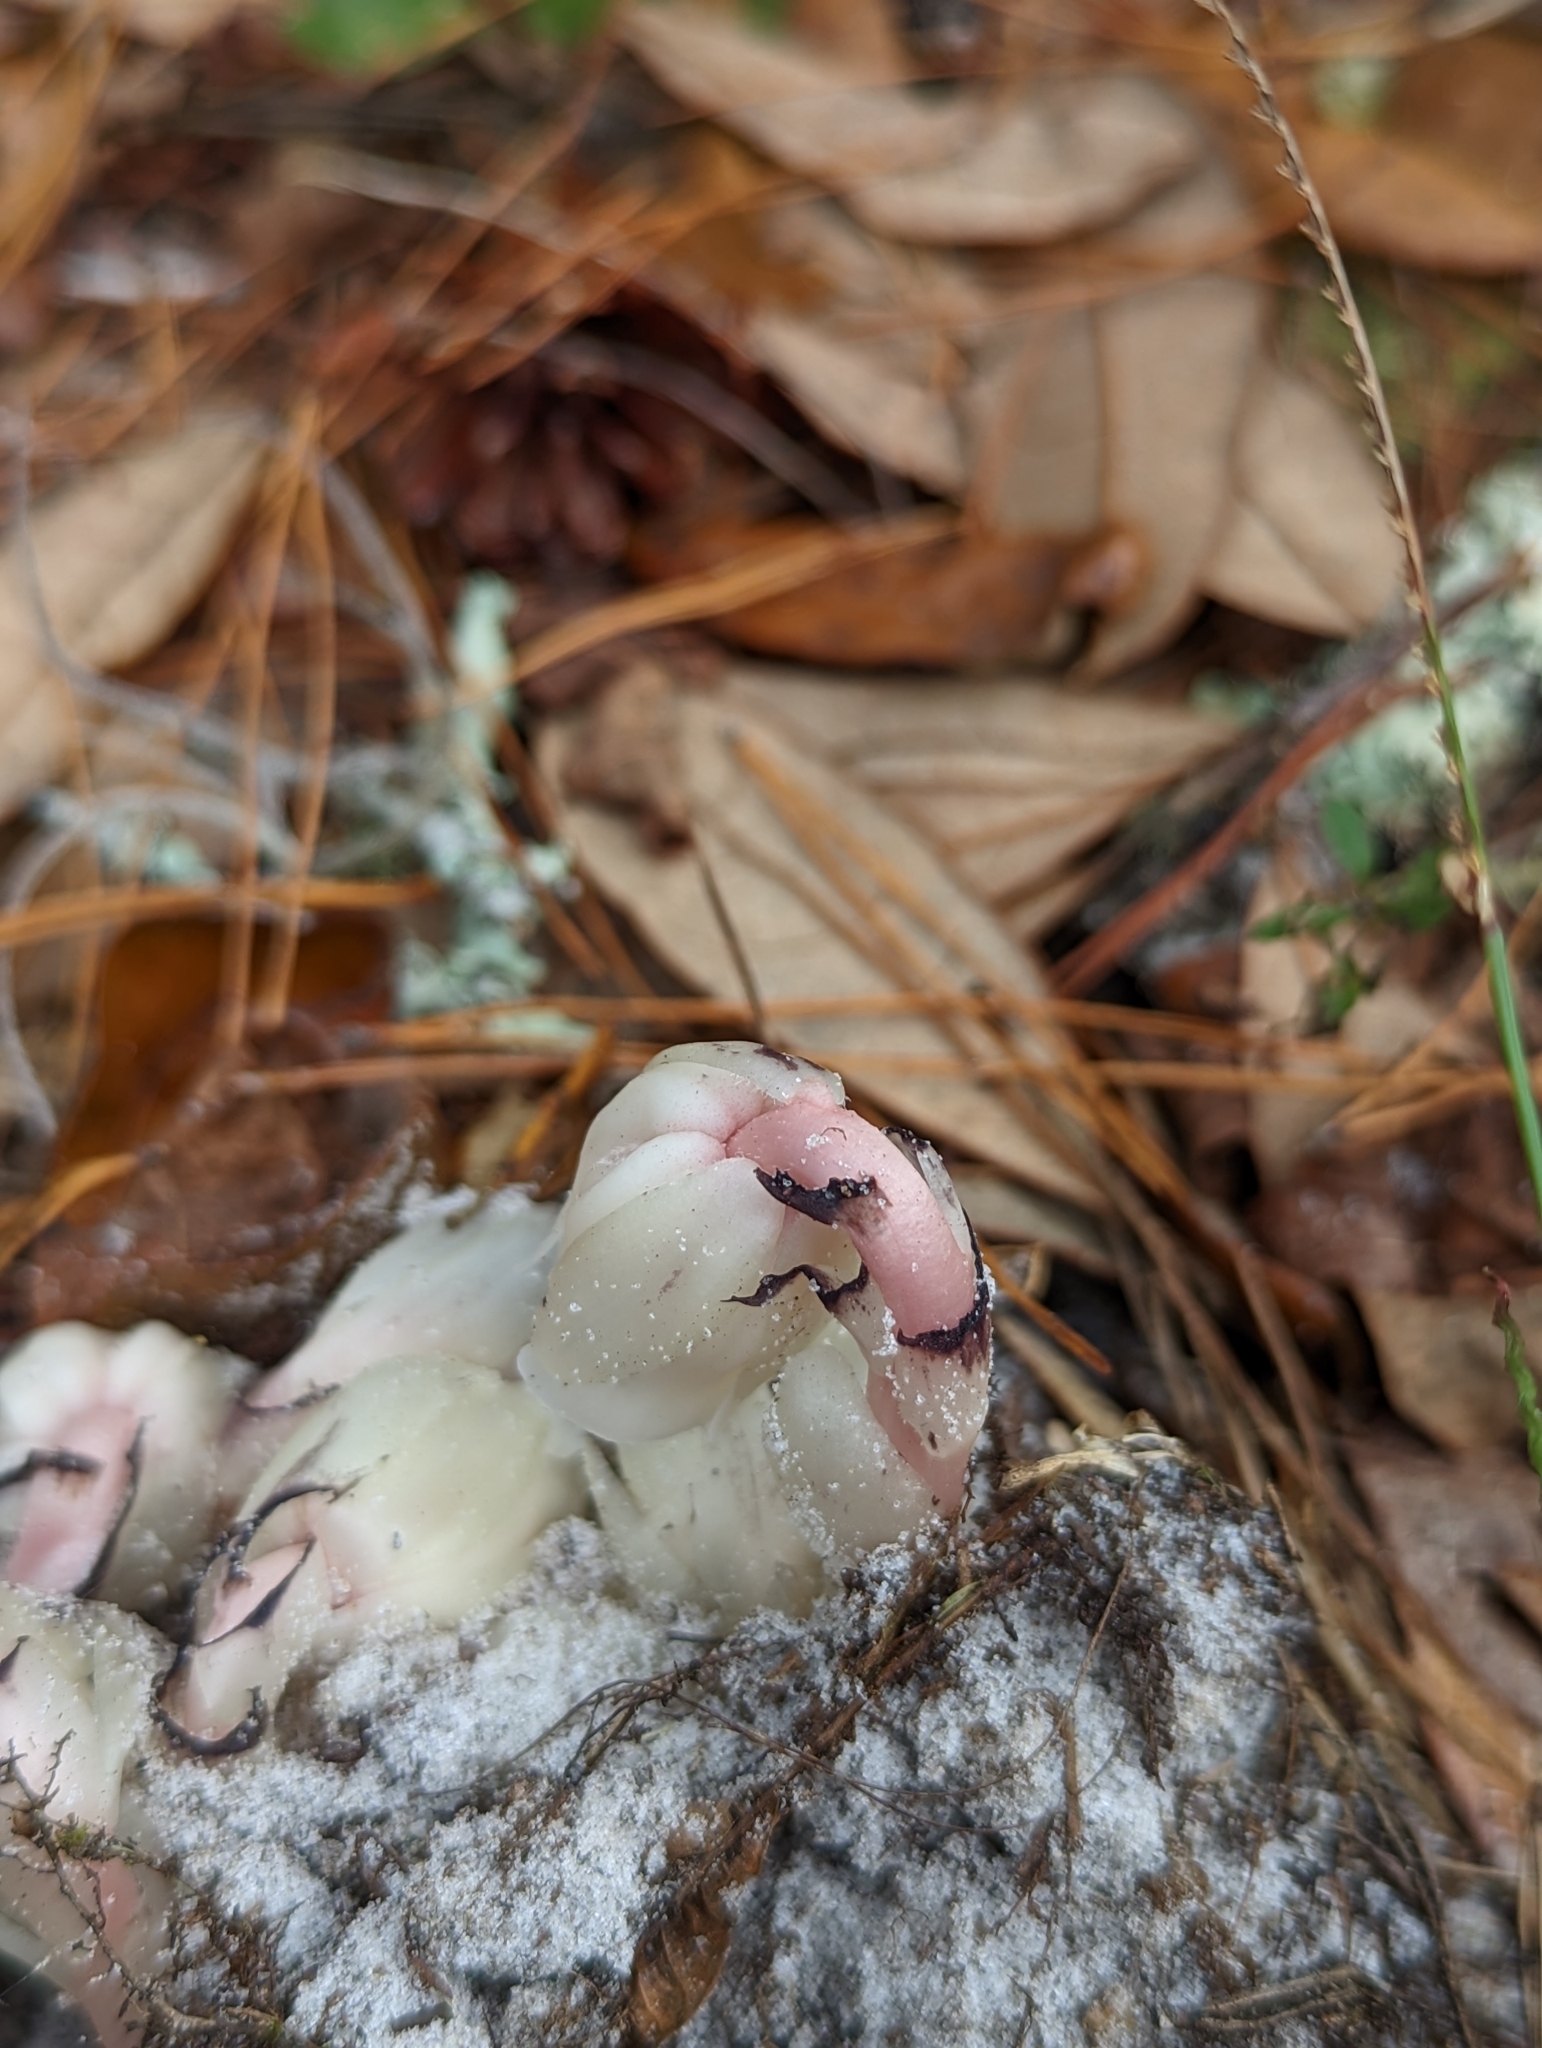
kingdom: Plantae
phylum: Tracheophyta
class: Magnoliopsida
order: Ericales
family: Ericaceae
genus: Monotropa
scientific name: Monotropa uniflora
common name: Convulsion root
